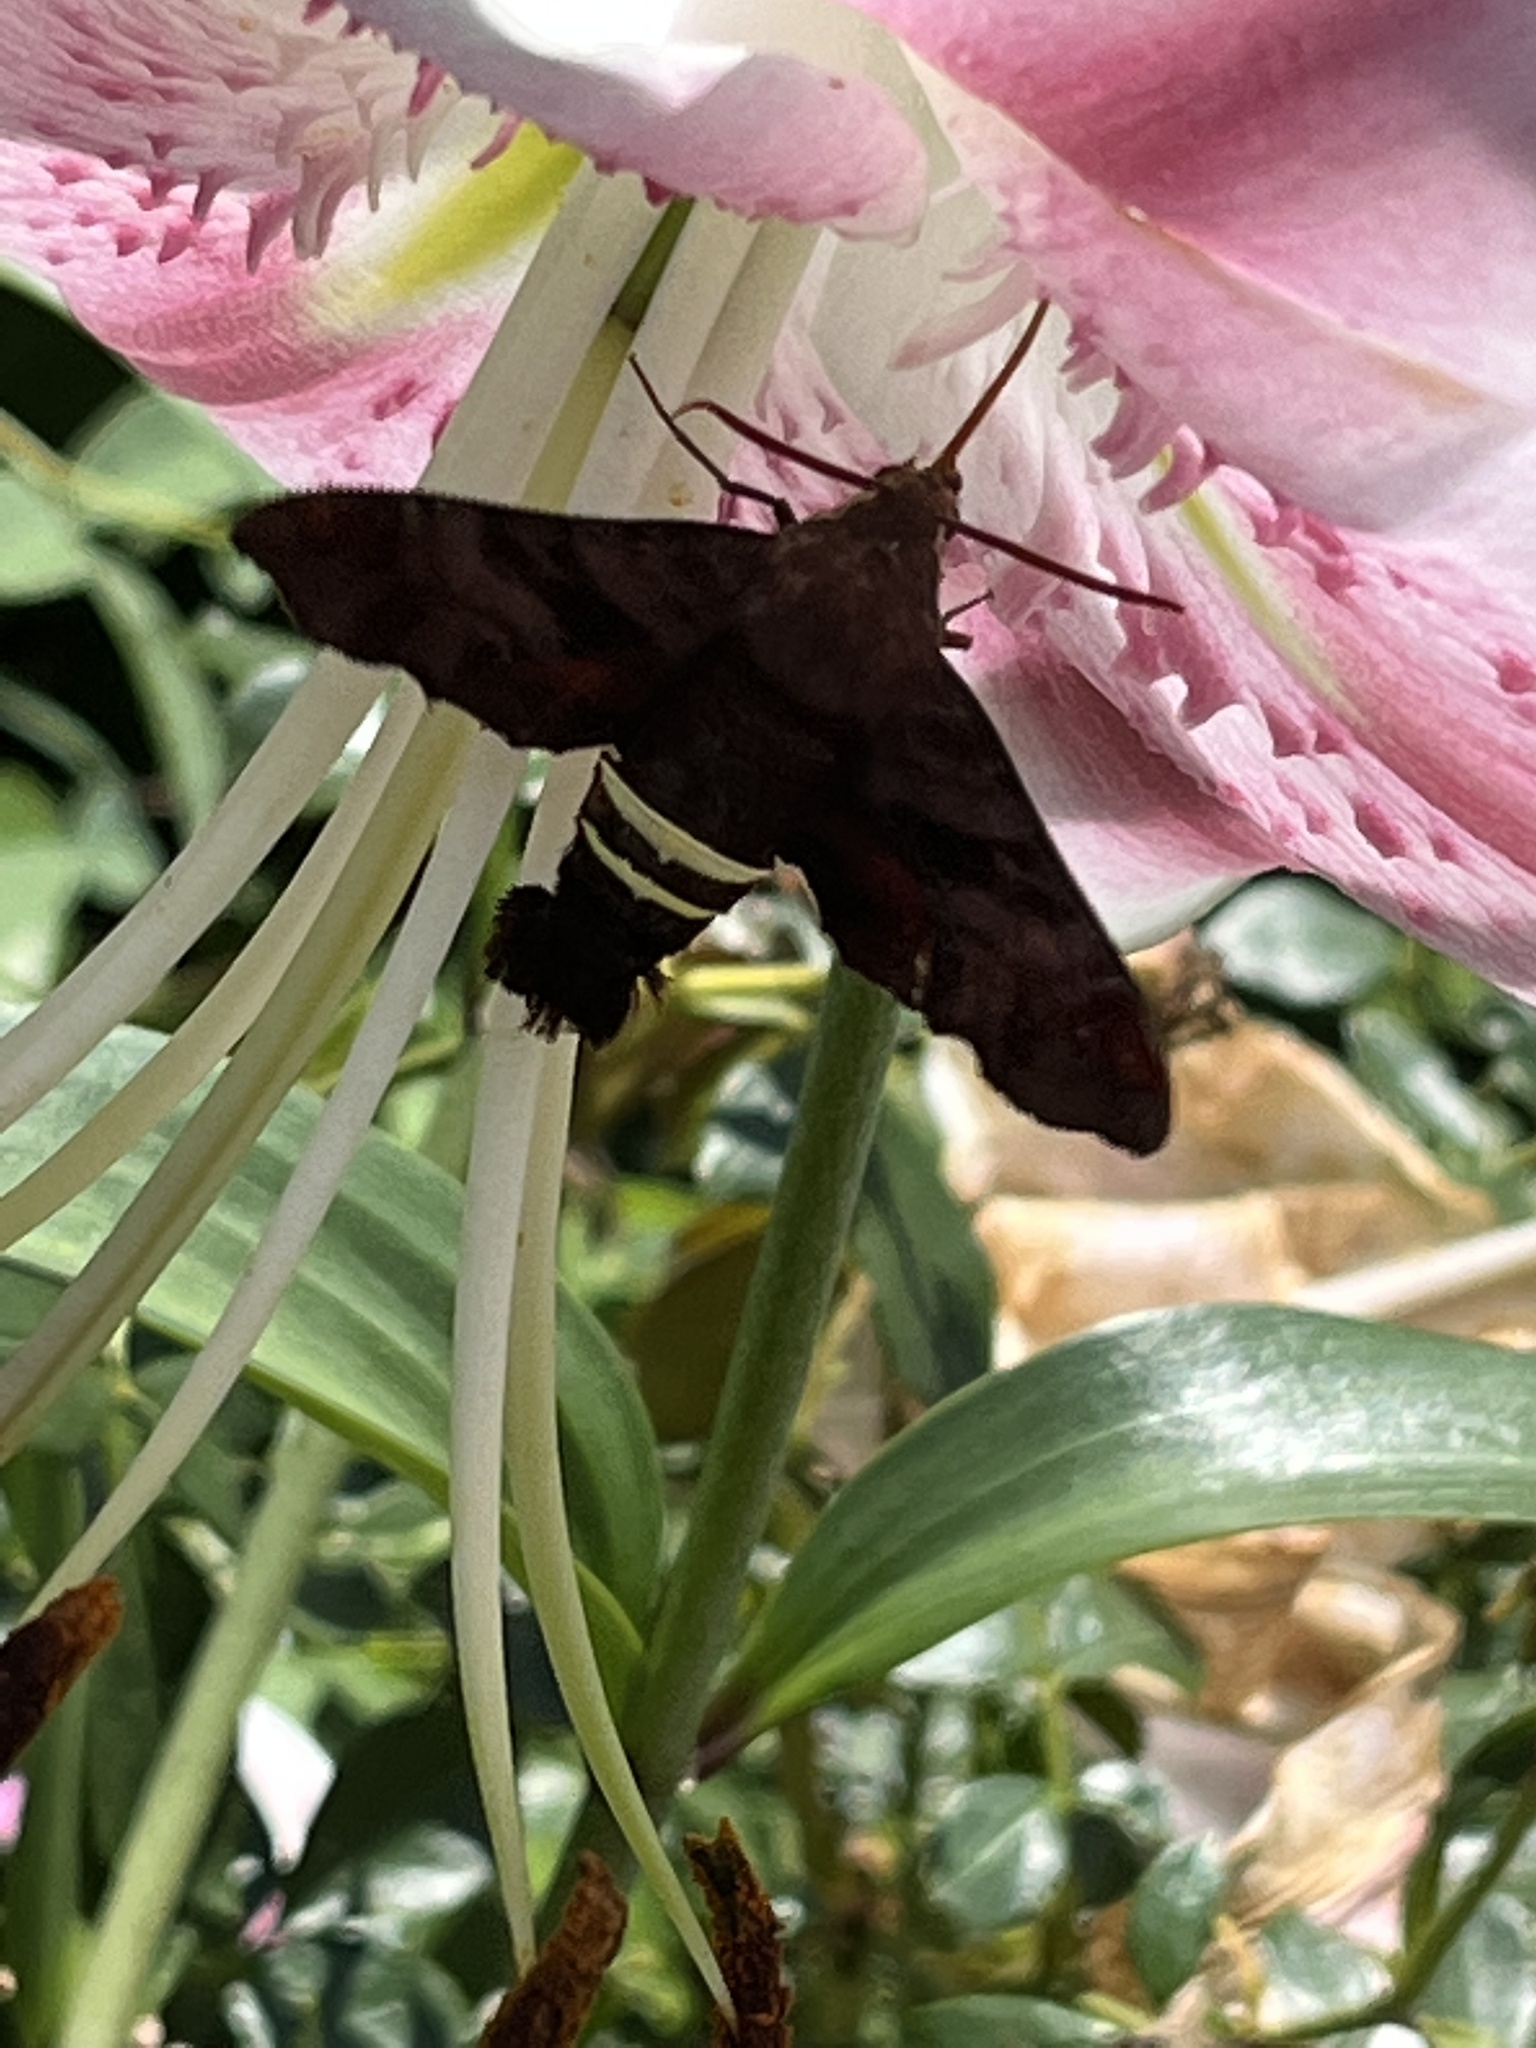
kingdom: Animalia
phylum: Arthropoda
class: Insecta
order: Lepidoptera
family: Sphingidae
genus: Amphion
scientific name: Amphion floridensis
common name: Nessus sphinx
